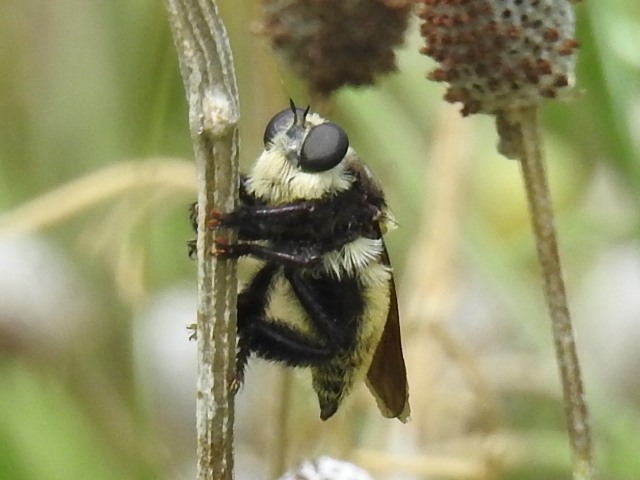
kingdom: Animalia
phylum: Arthropoda
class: Insecta
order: Diptera
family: Asilidae
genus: Mallophora
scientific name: Mallophora fautrix
